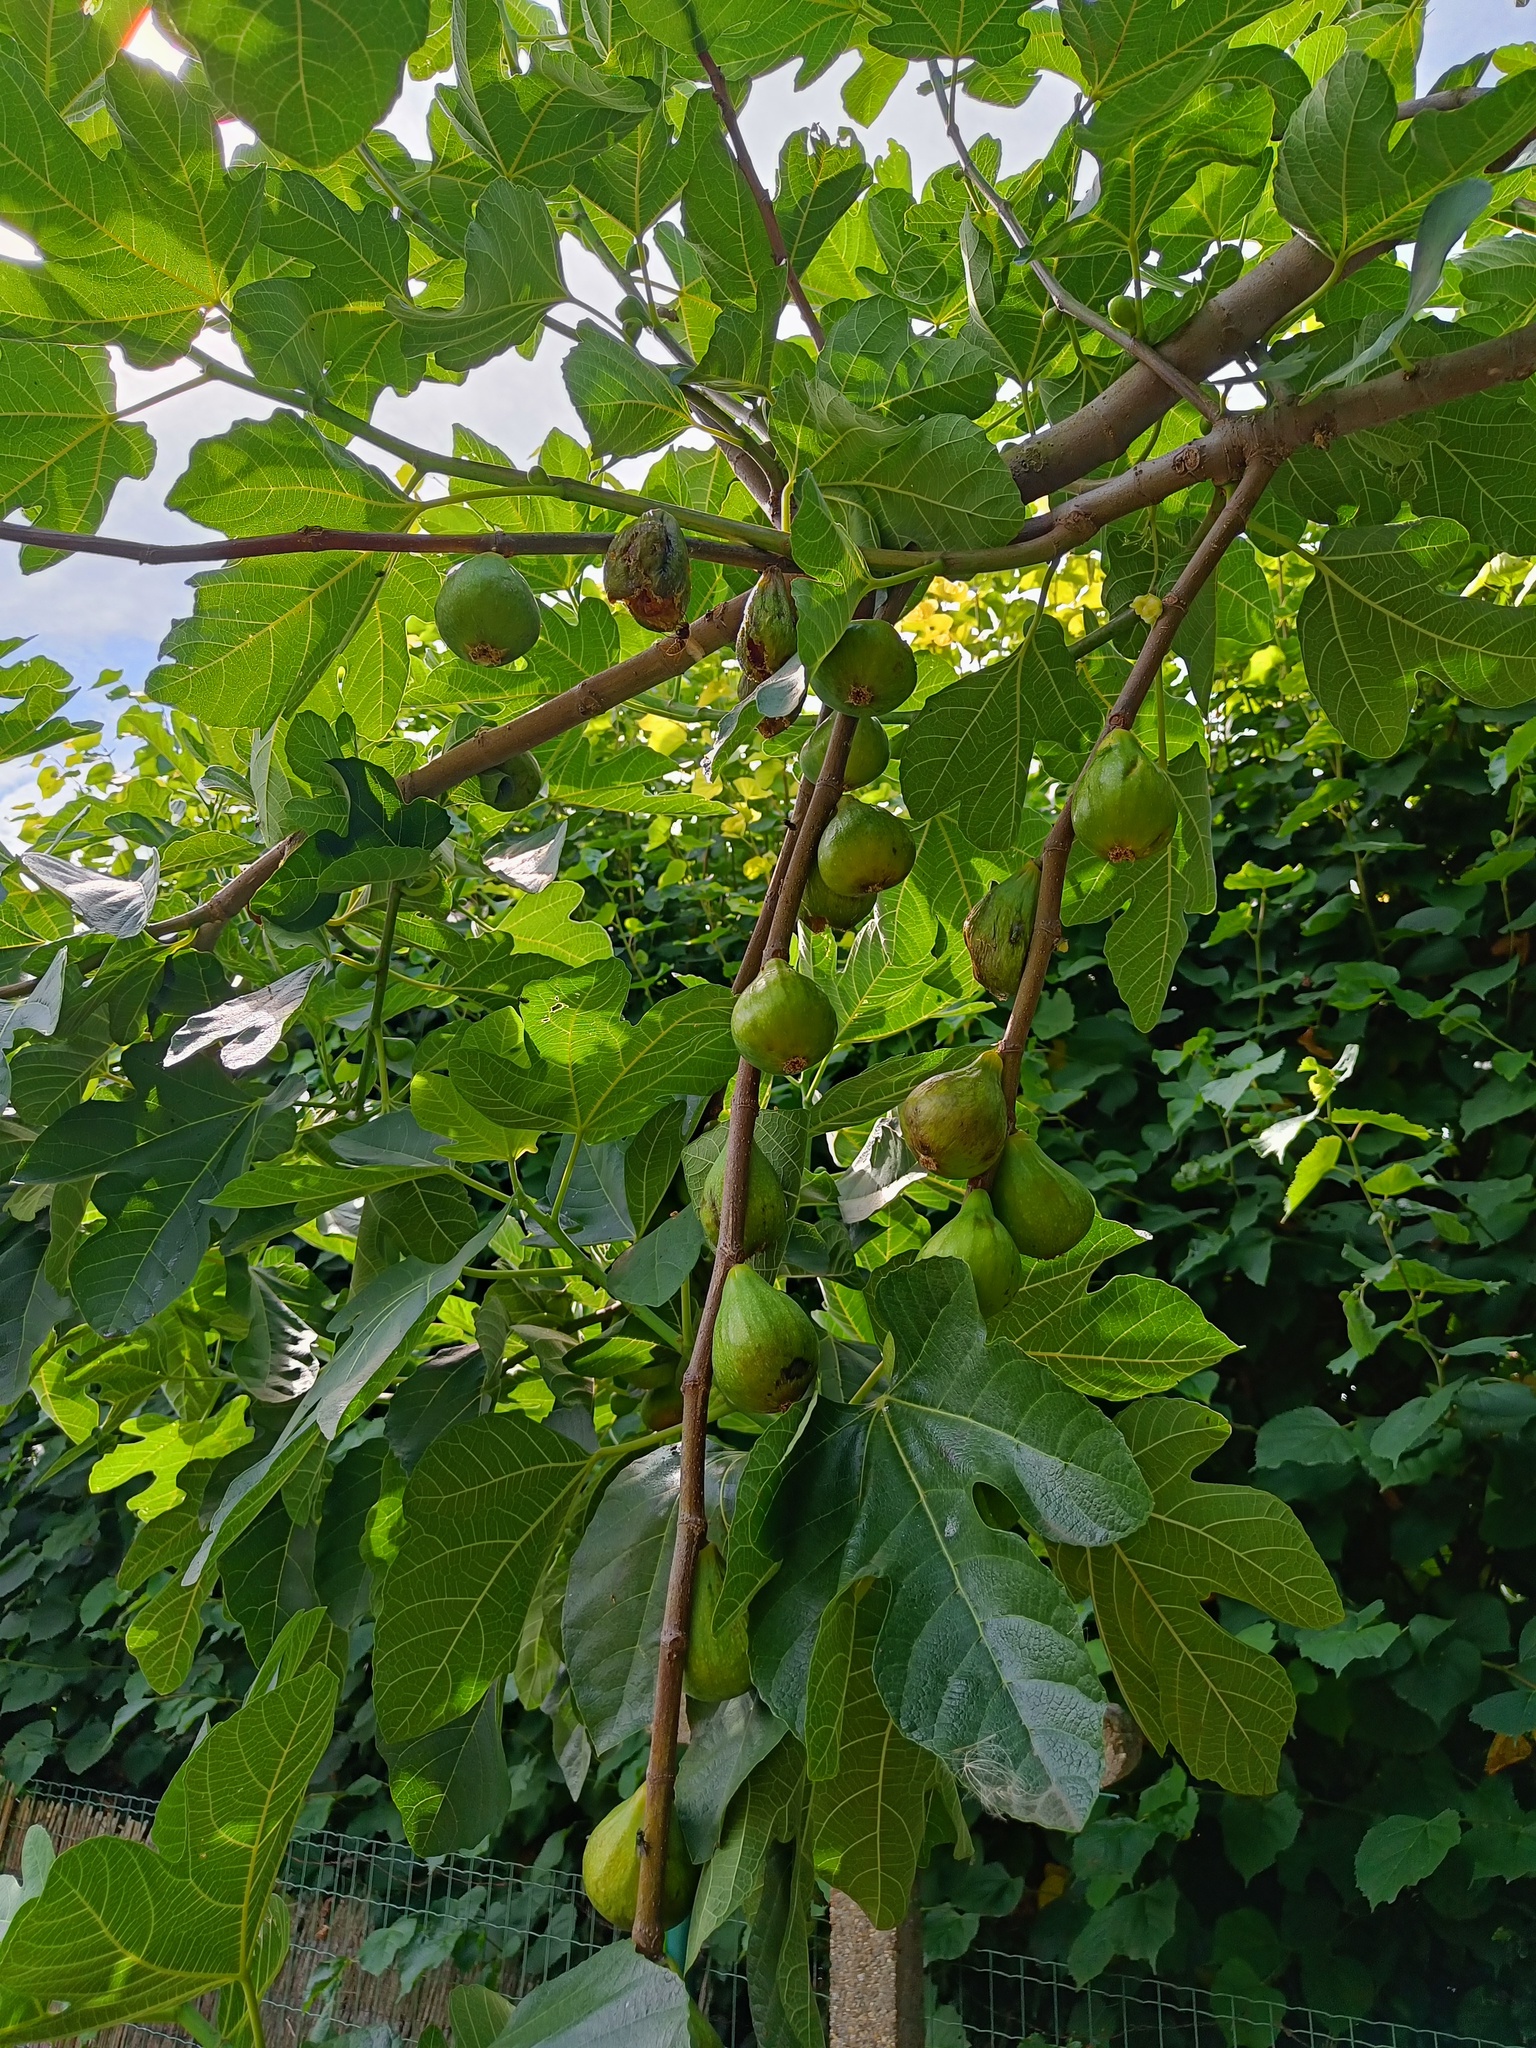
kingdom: Animalia
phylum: Arthropoda
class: Insecta
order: Hymenoptera
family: Vespidae
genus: Vespa
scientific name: Vespa crabro
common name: Hornet
